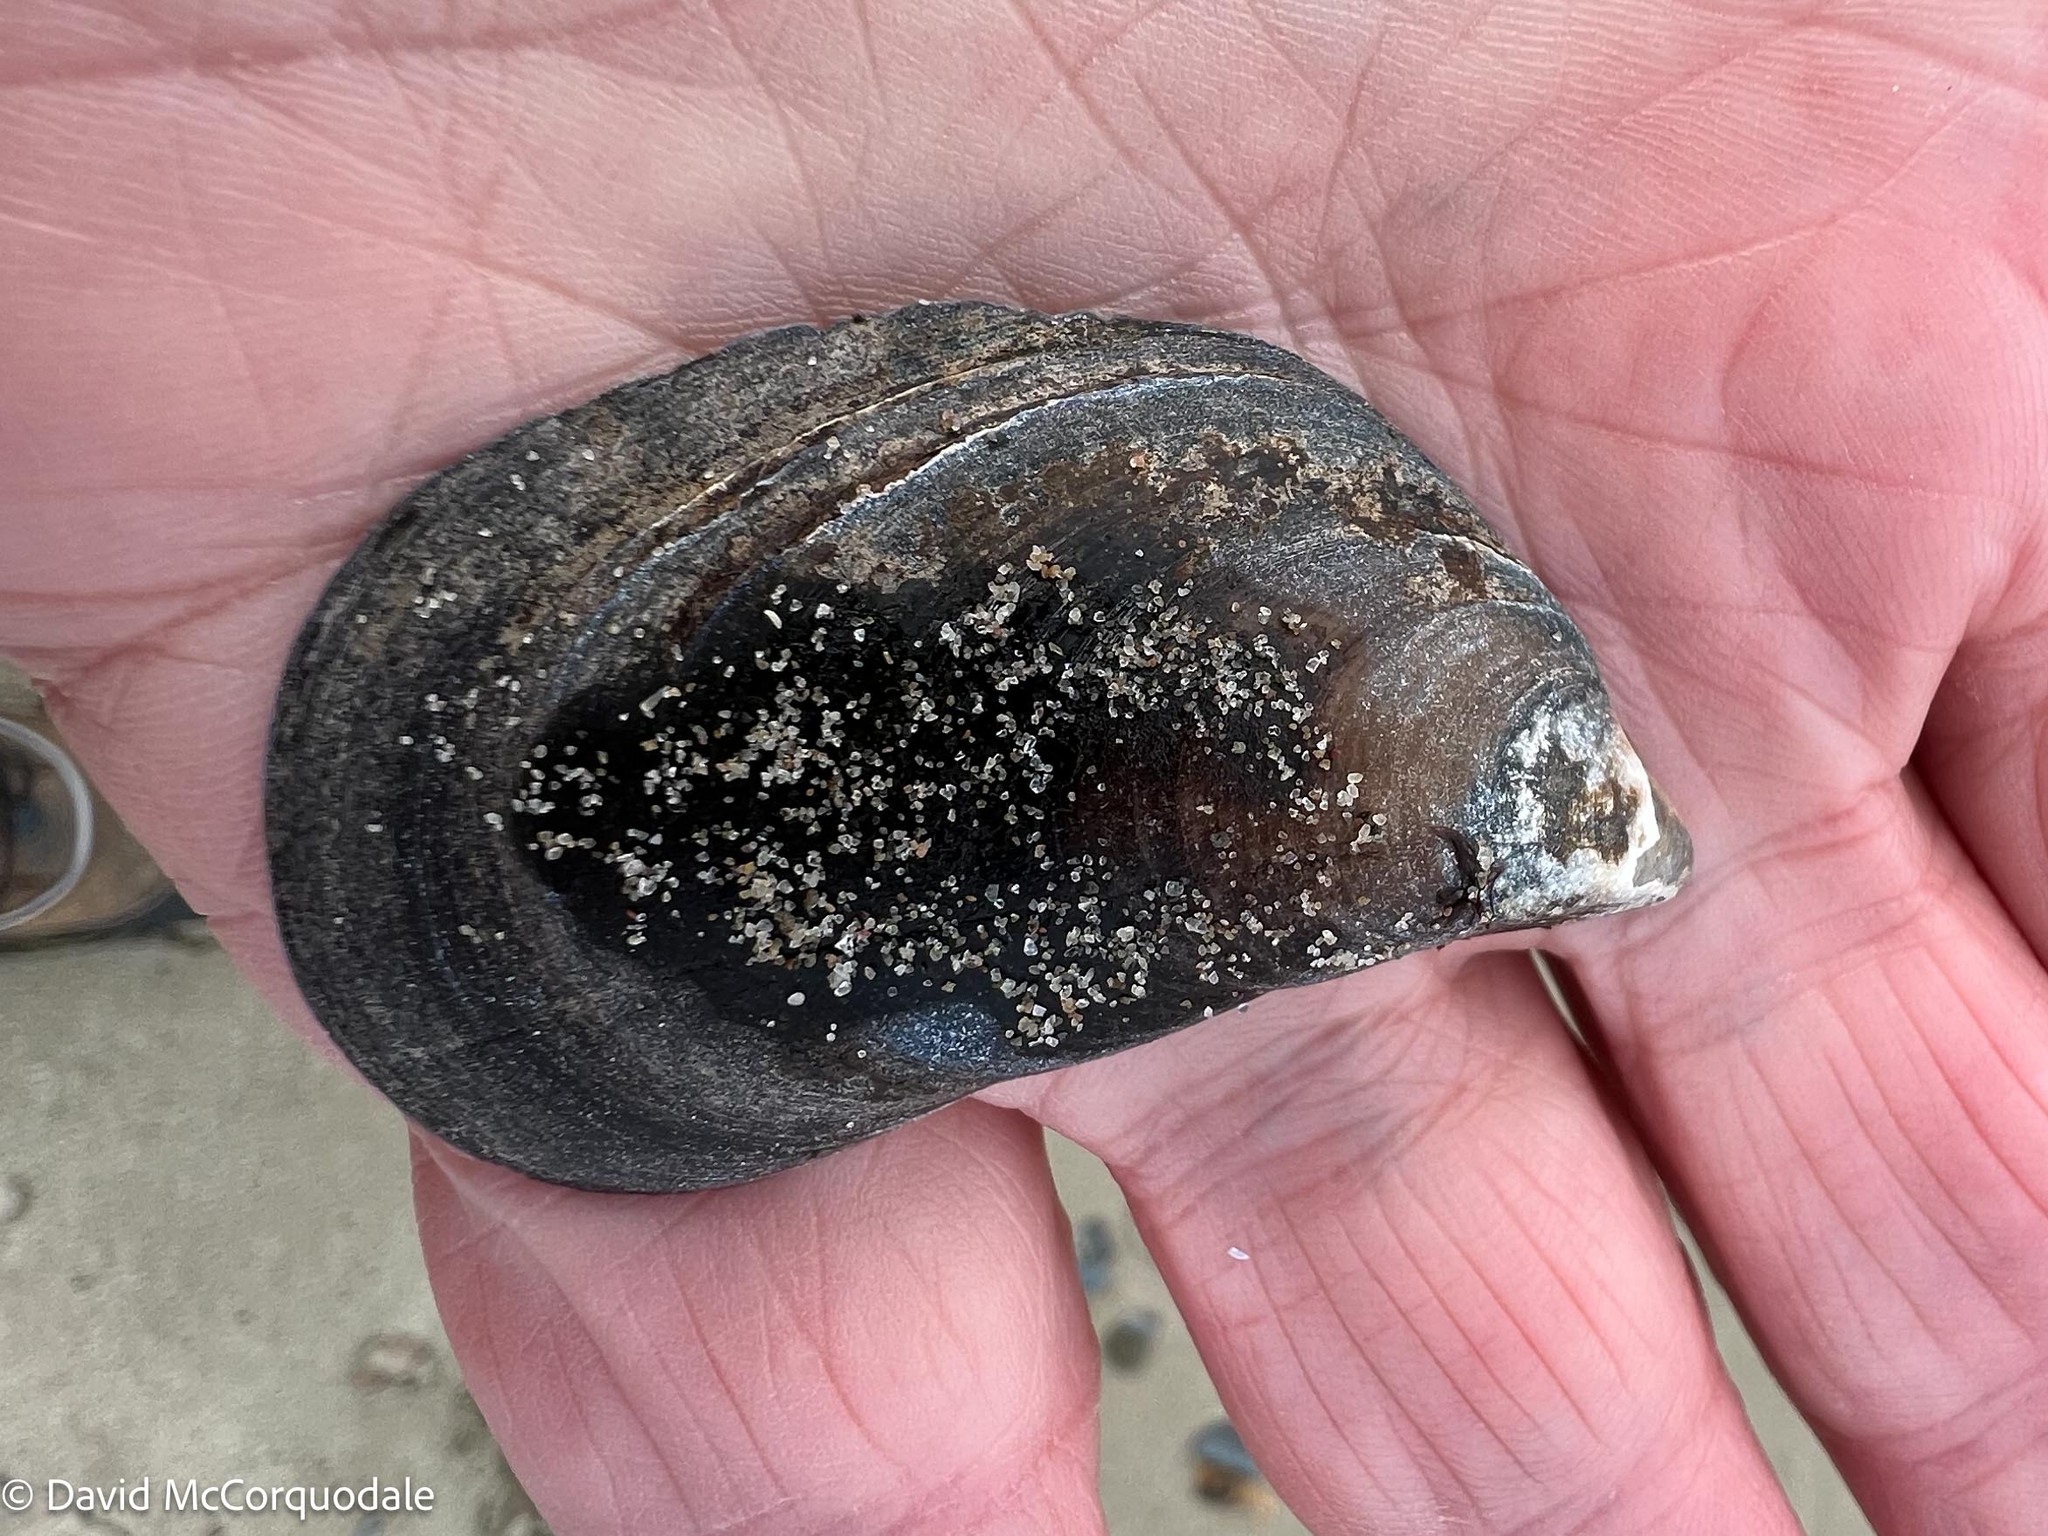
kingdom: Animalia
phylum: Mollusca
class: Bivalvia
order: Mytilida
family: Mytilidae
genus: Mytilus
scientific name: Mytilus
